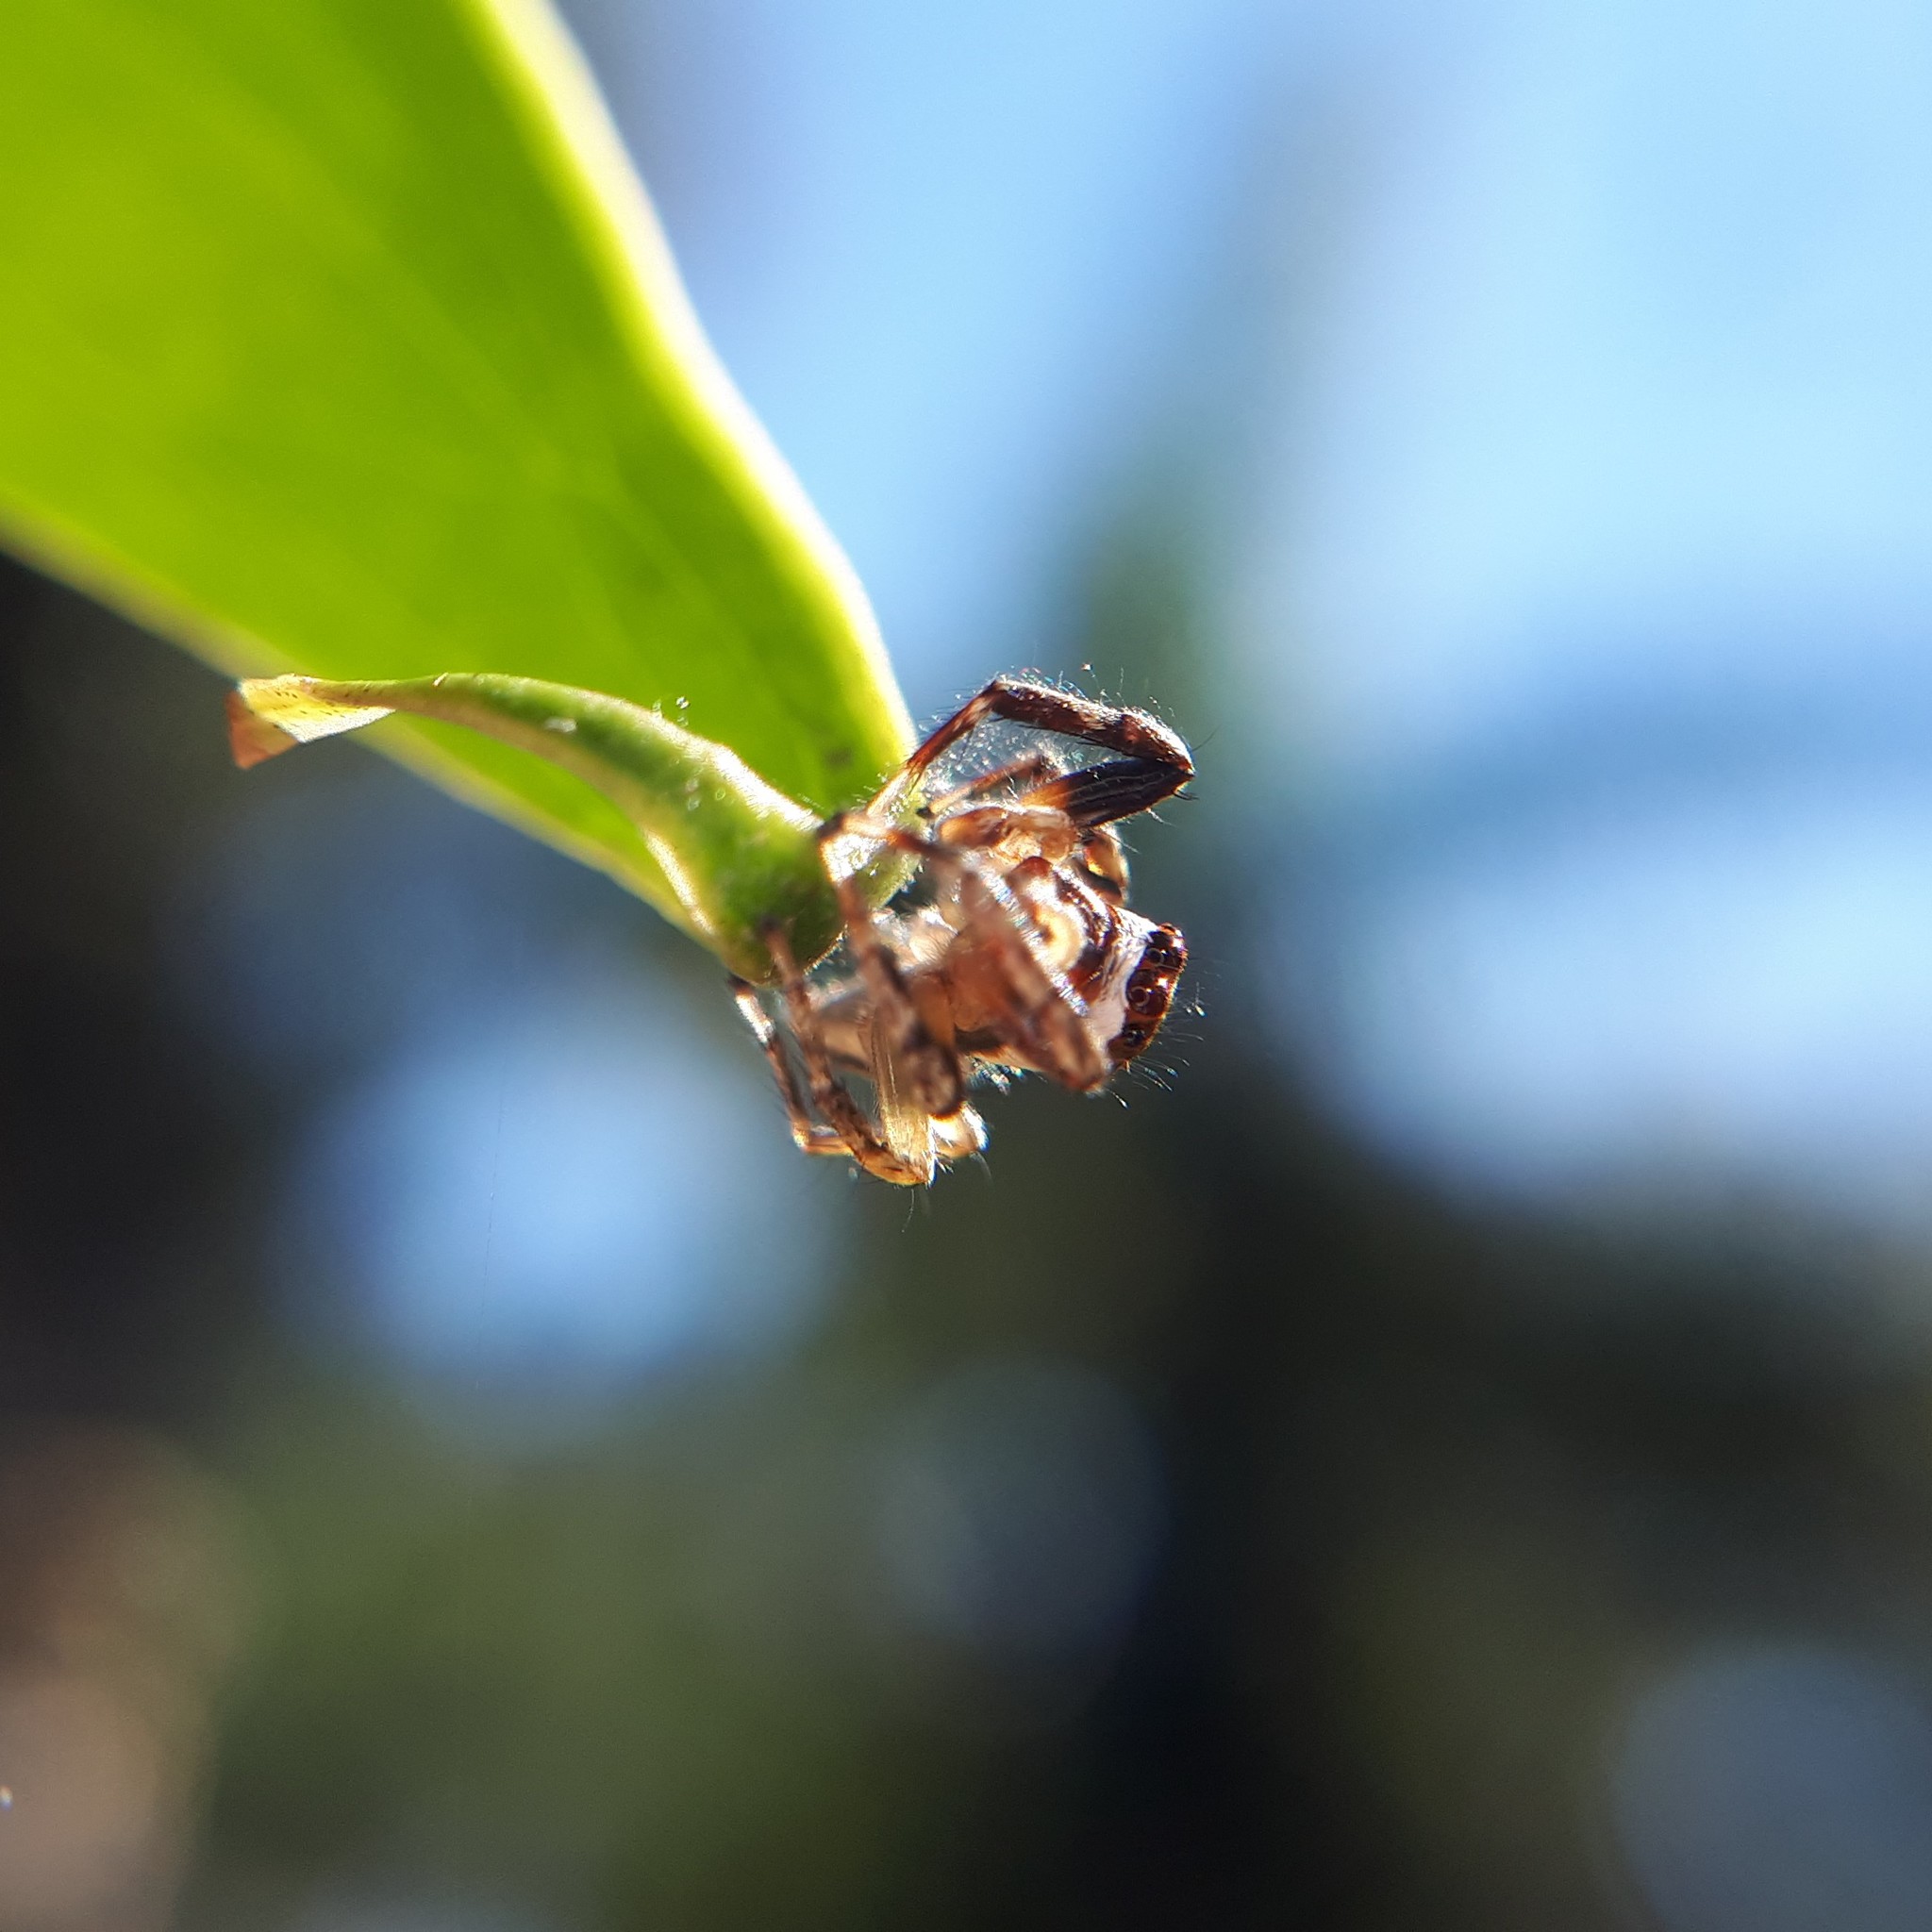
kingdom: Animalia
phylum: Arthropoda
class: Arachnida
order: Araneae
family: Salticidae
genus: Chira
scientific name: Chira lucina
